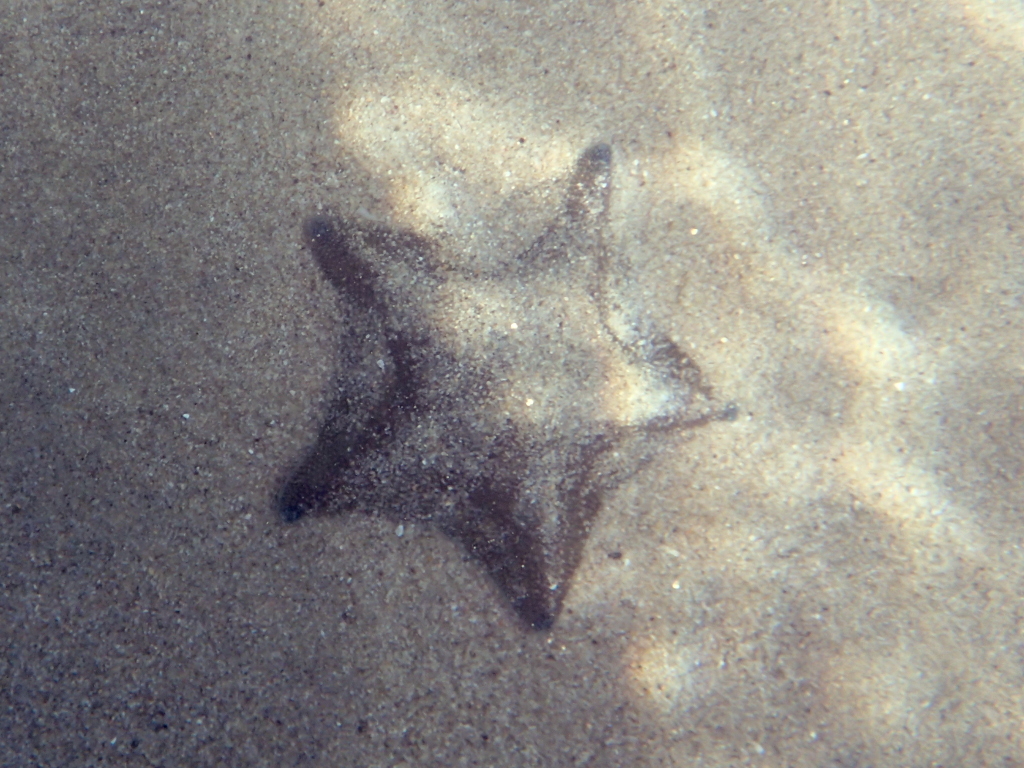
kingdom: Animalia
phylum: Echinodermata
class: Asteroidea
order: Valvatida
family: Asterinidae
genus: Patiriella
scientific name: Patiriella regularis
